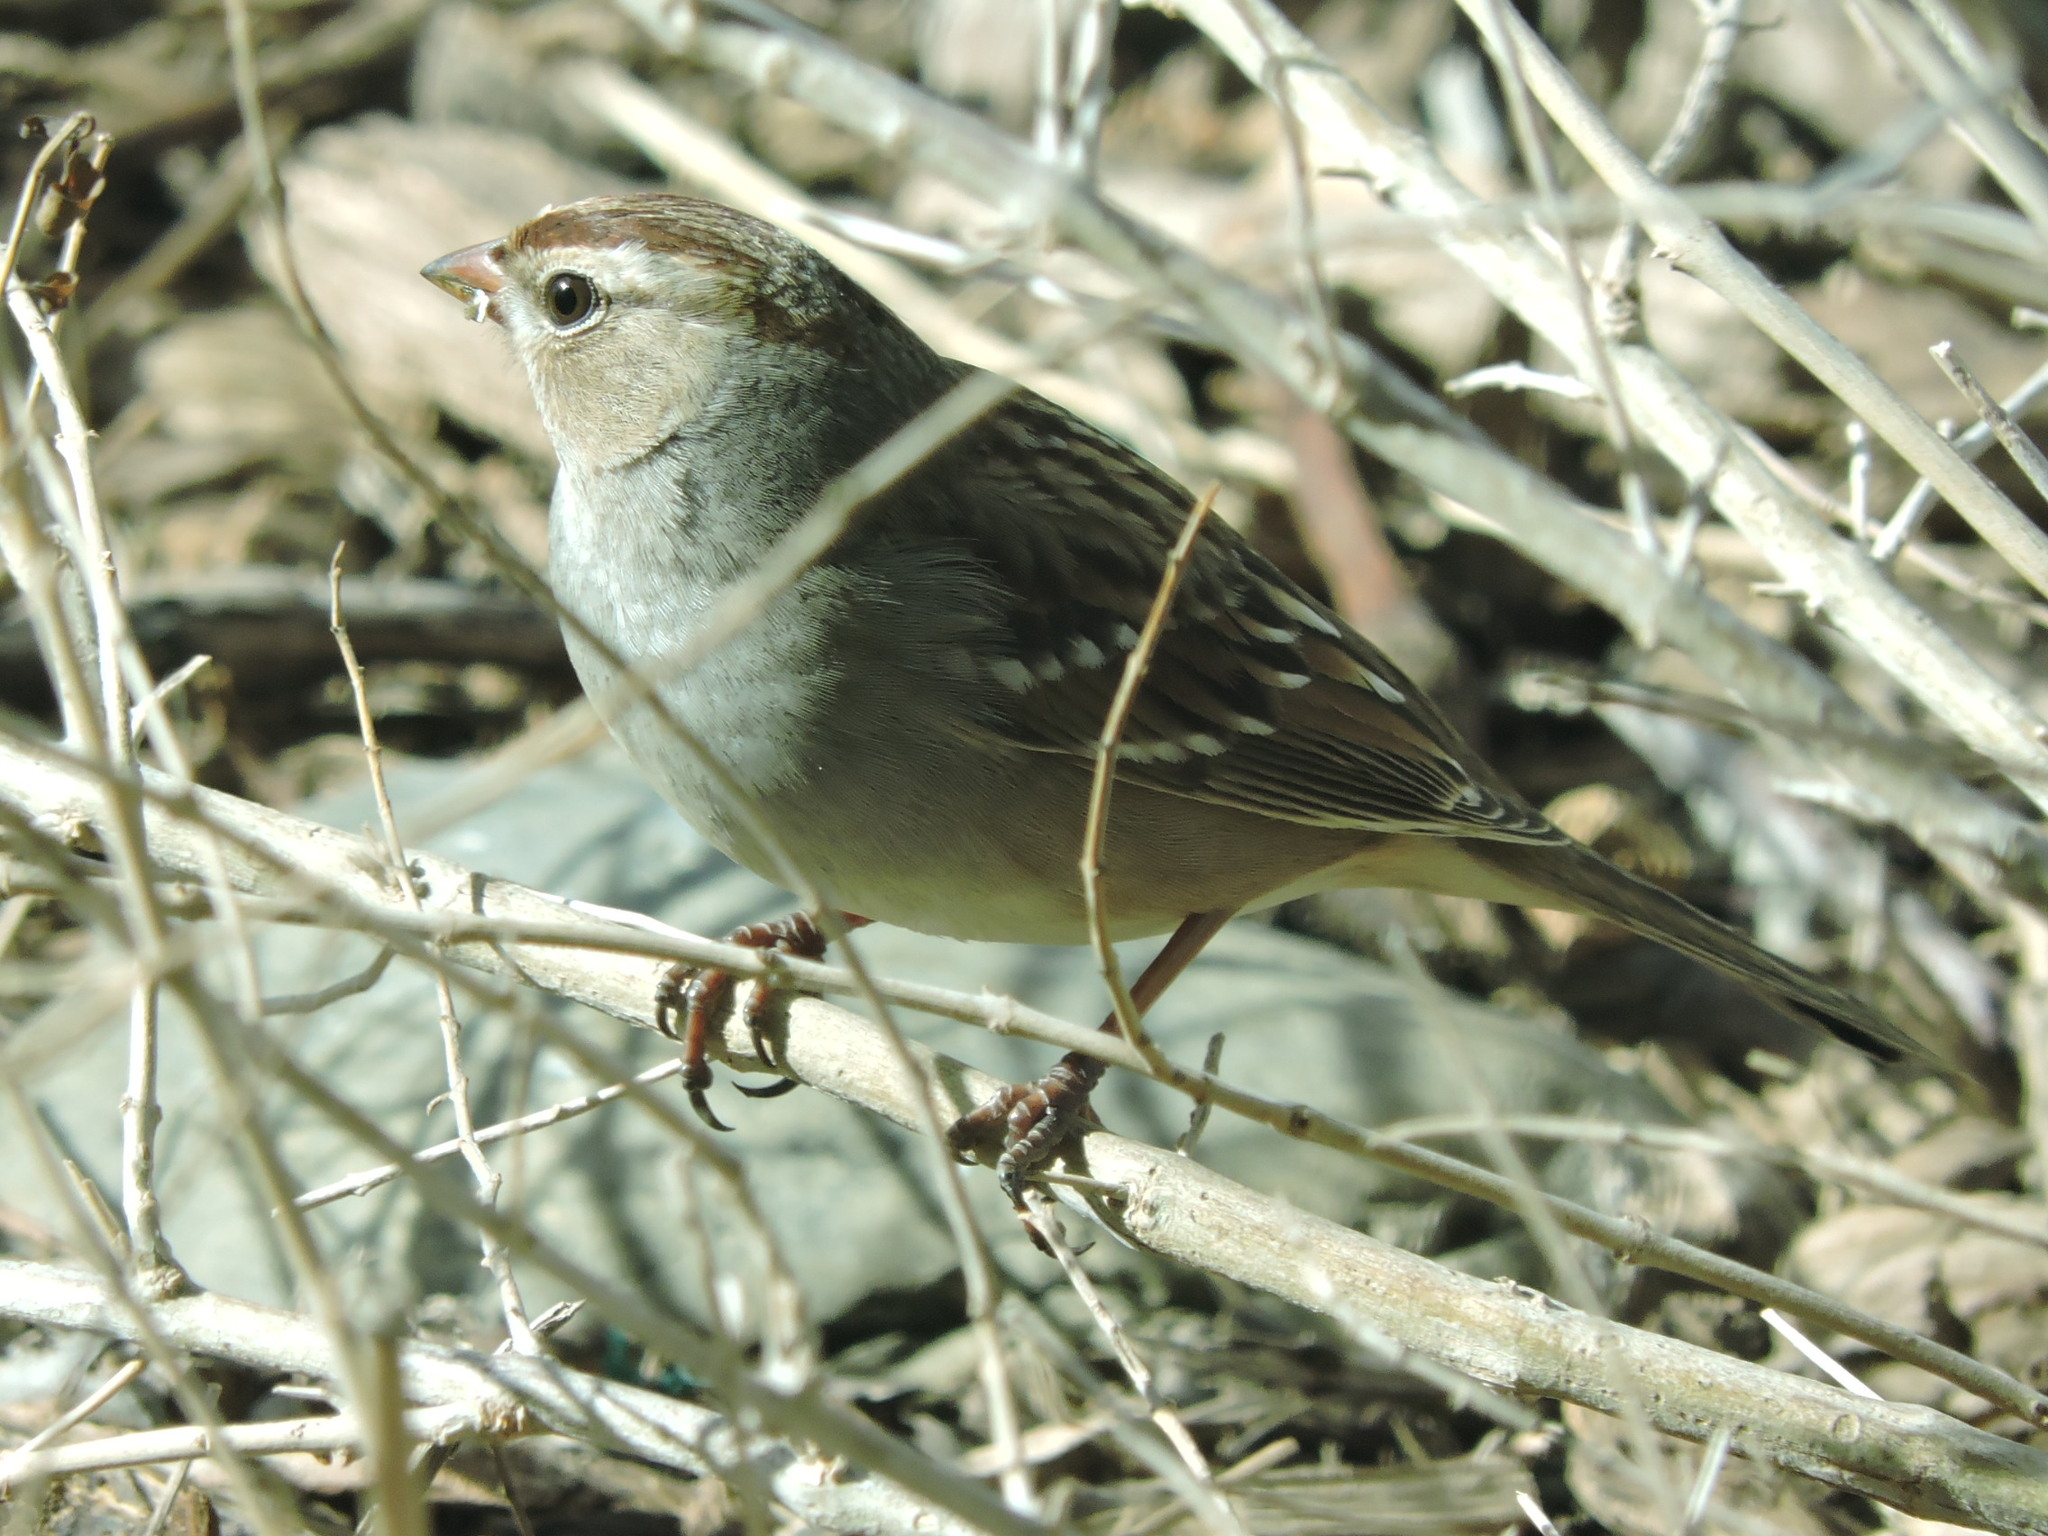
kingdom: Animalia
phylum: Chordata
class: Aves
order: Passeriformes
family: Passerellidae
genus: Zonotrichia
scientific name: Zonotrichia leucophrys
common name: White-crowned sparrow
